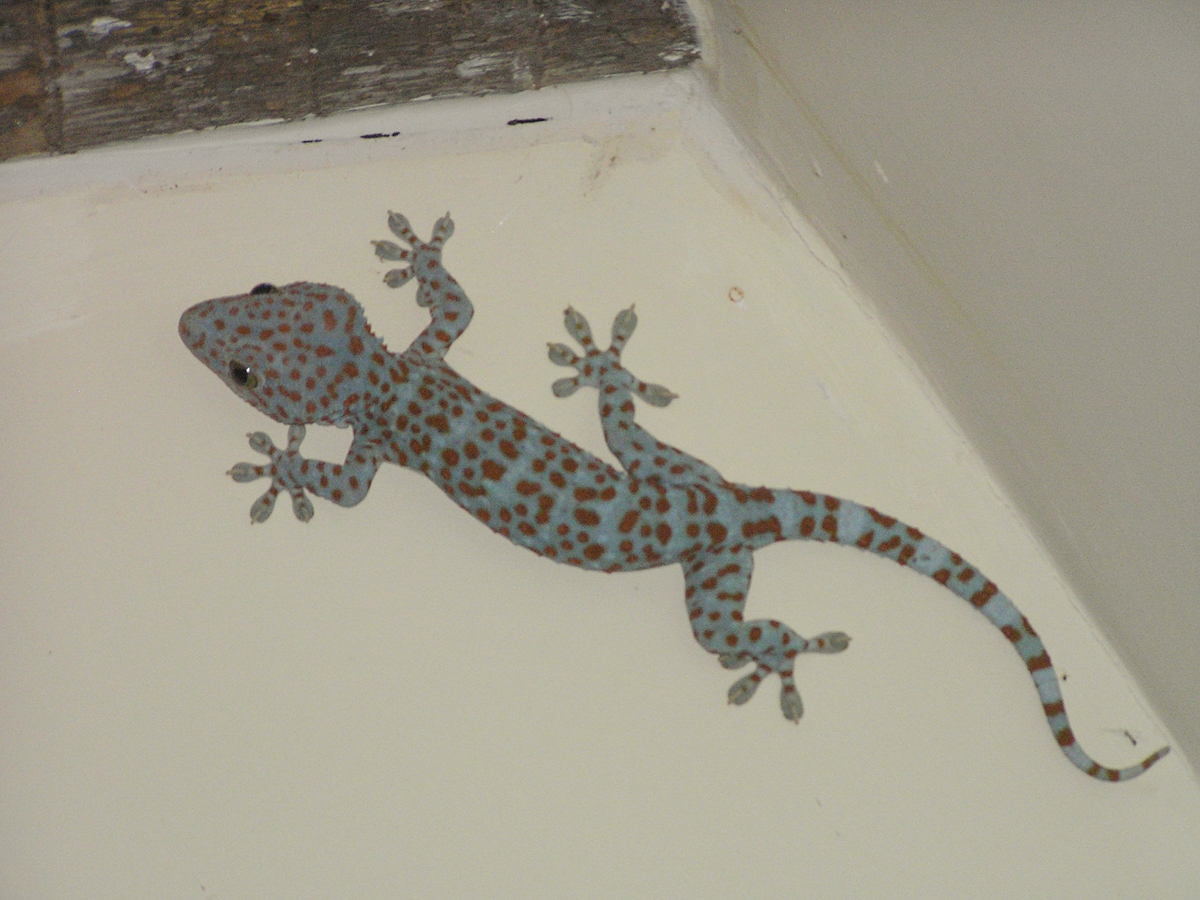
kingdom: Animalia
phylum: Chordata
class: Squamata
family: Gekkonidae
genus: Gekko
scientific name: Gekko gecko
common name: Tokay gecko
